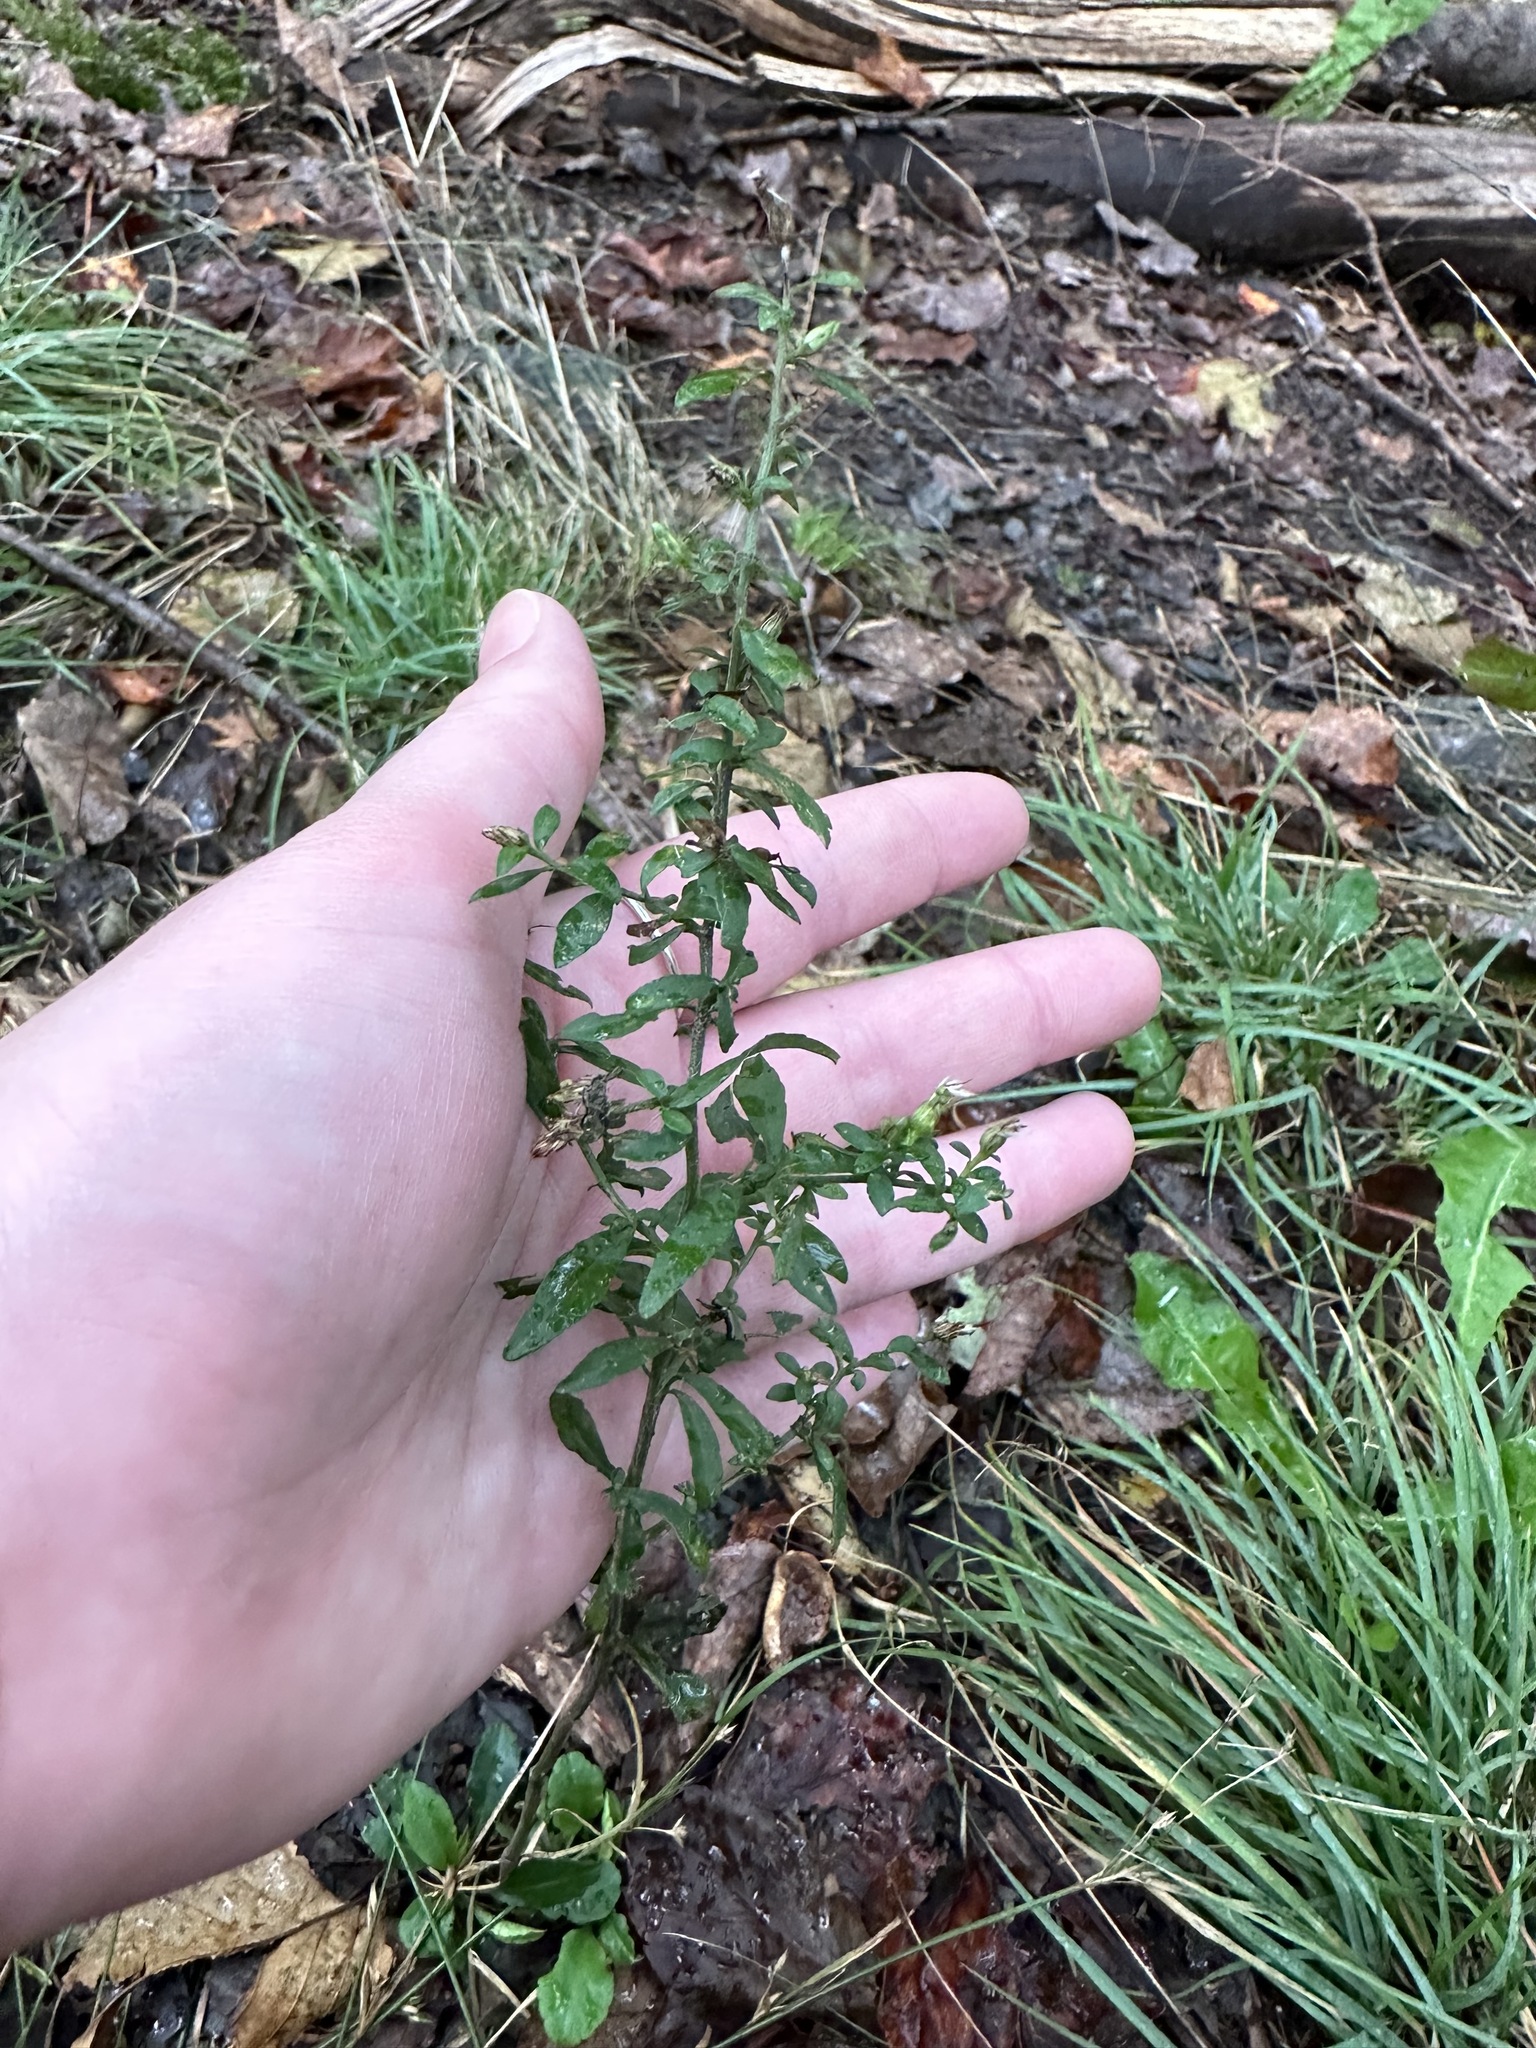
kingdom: Plantae
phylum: Tracheophyta
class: Magnoliopsida
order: Asterales
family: Asteraceae
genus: Symphyotrichum
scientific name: Symphyotrichum lateriflorum
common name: Calico aster
